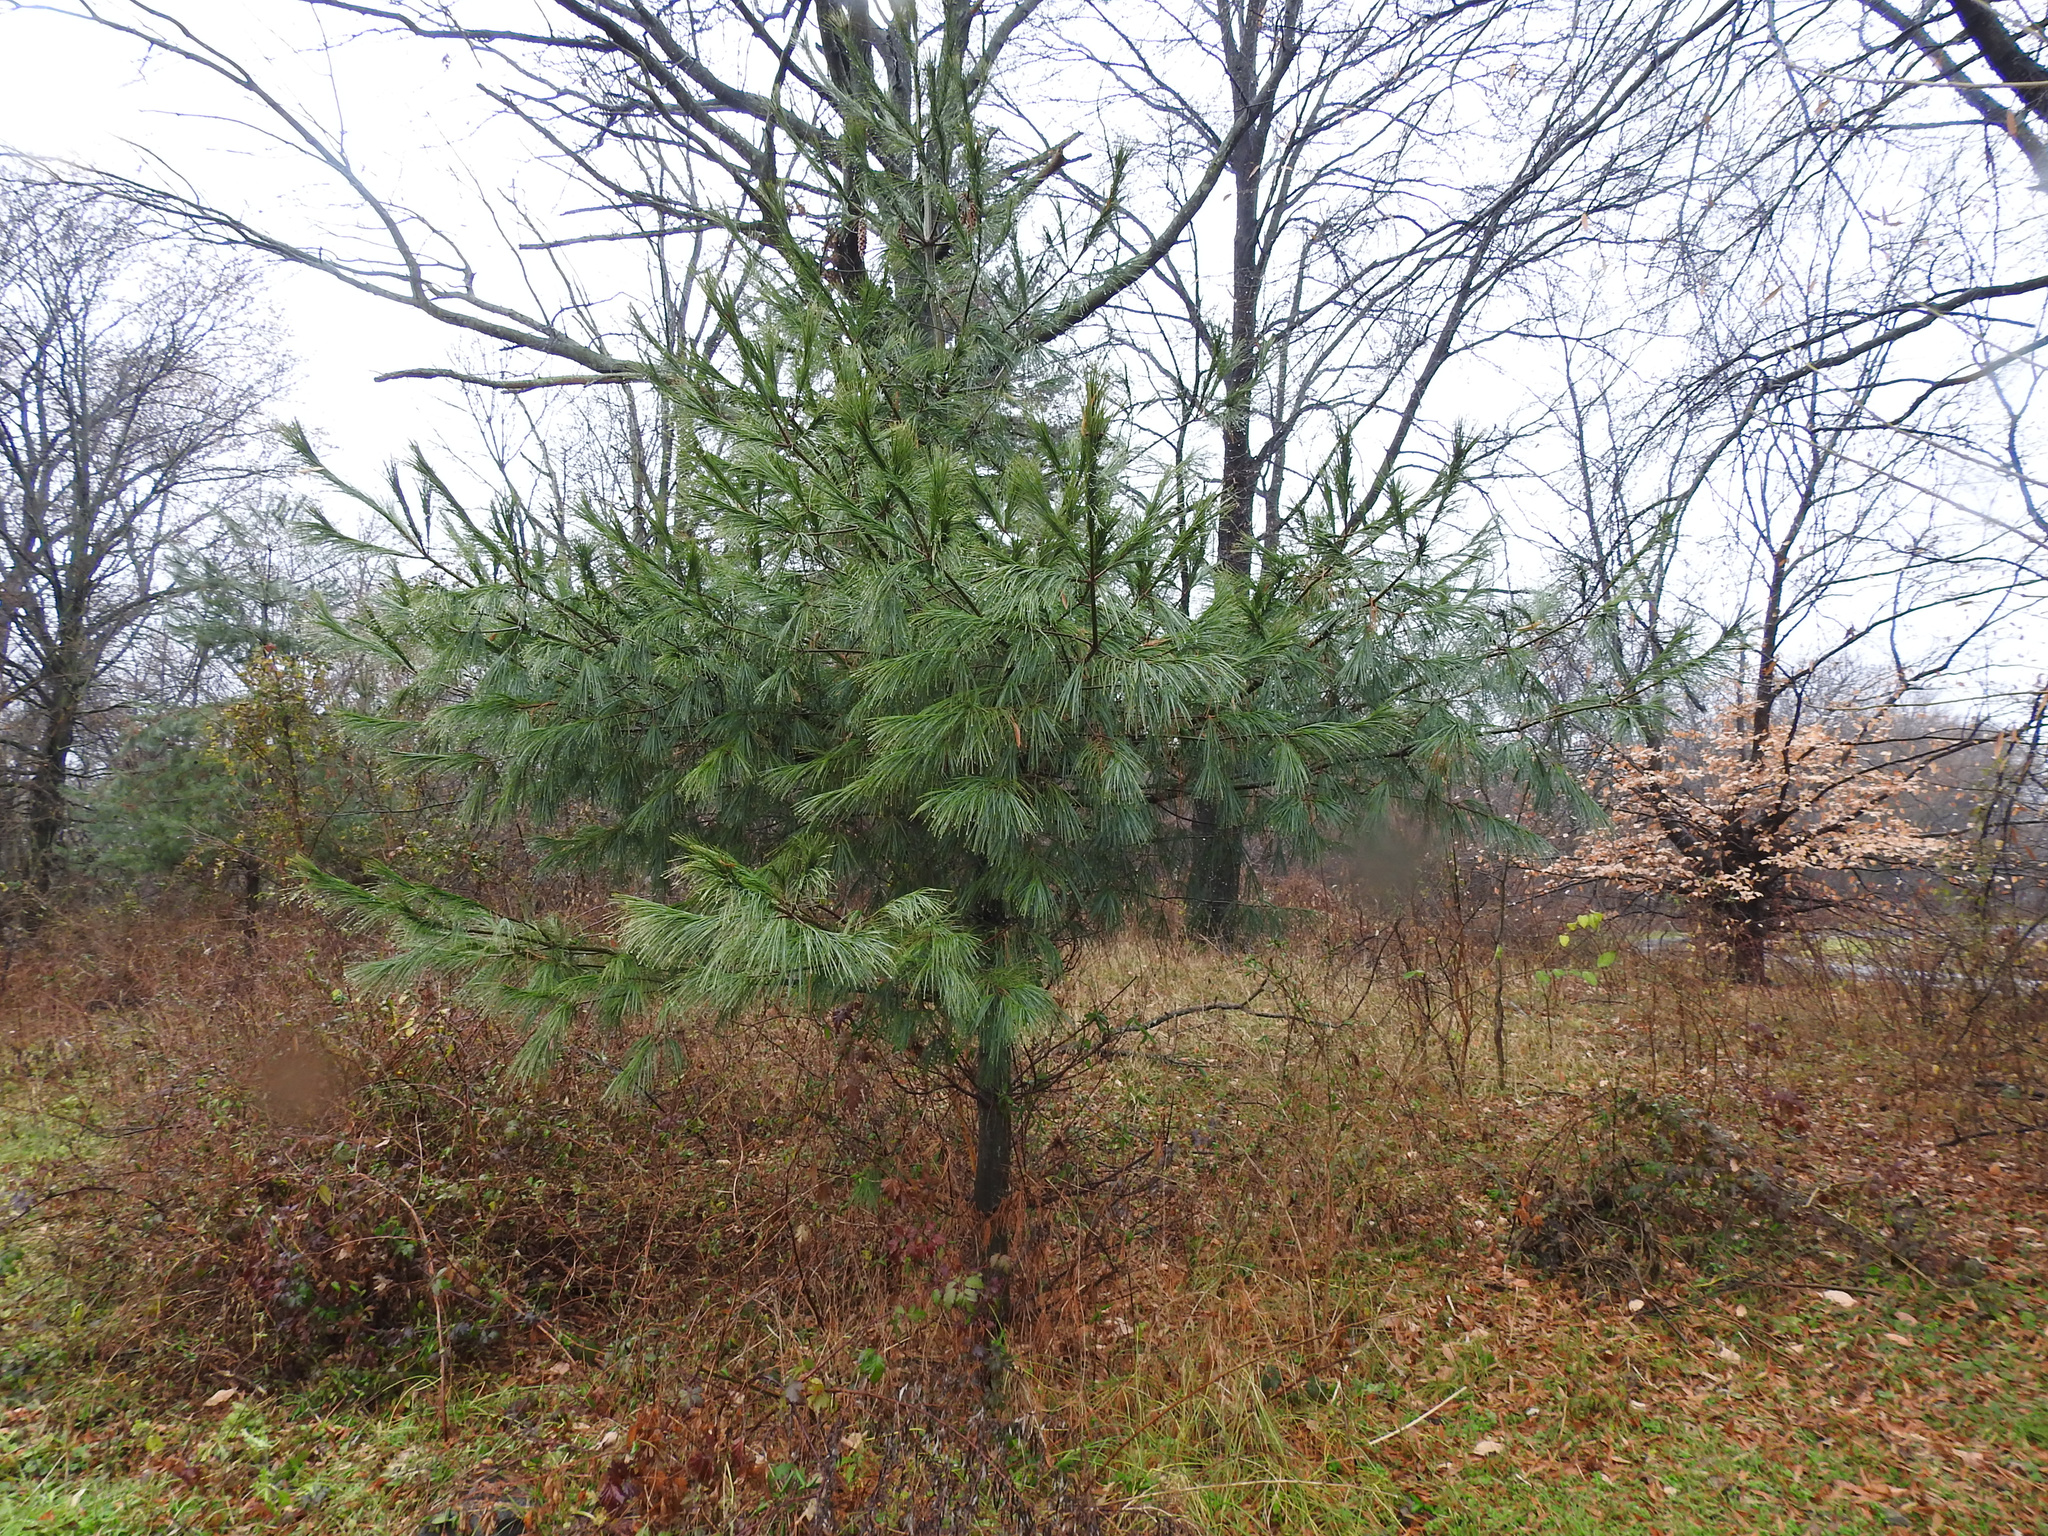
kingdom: Plantae
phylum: Tracheophyta
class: Pinopsida
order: Pinales
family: Pinaceae
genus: Pinus
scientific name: Pinus strobus
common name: Weymouth pine
